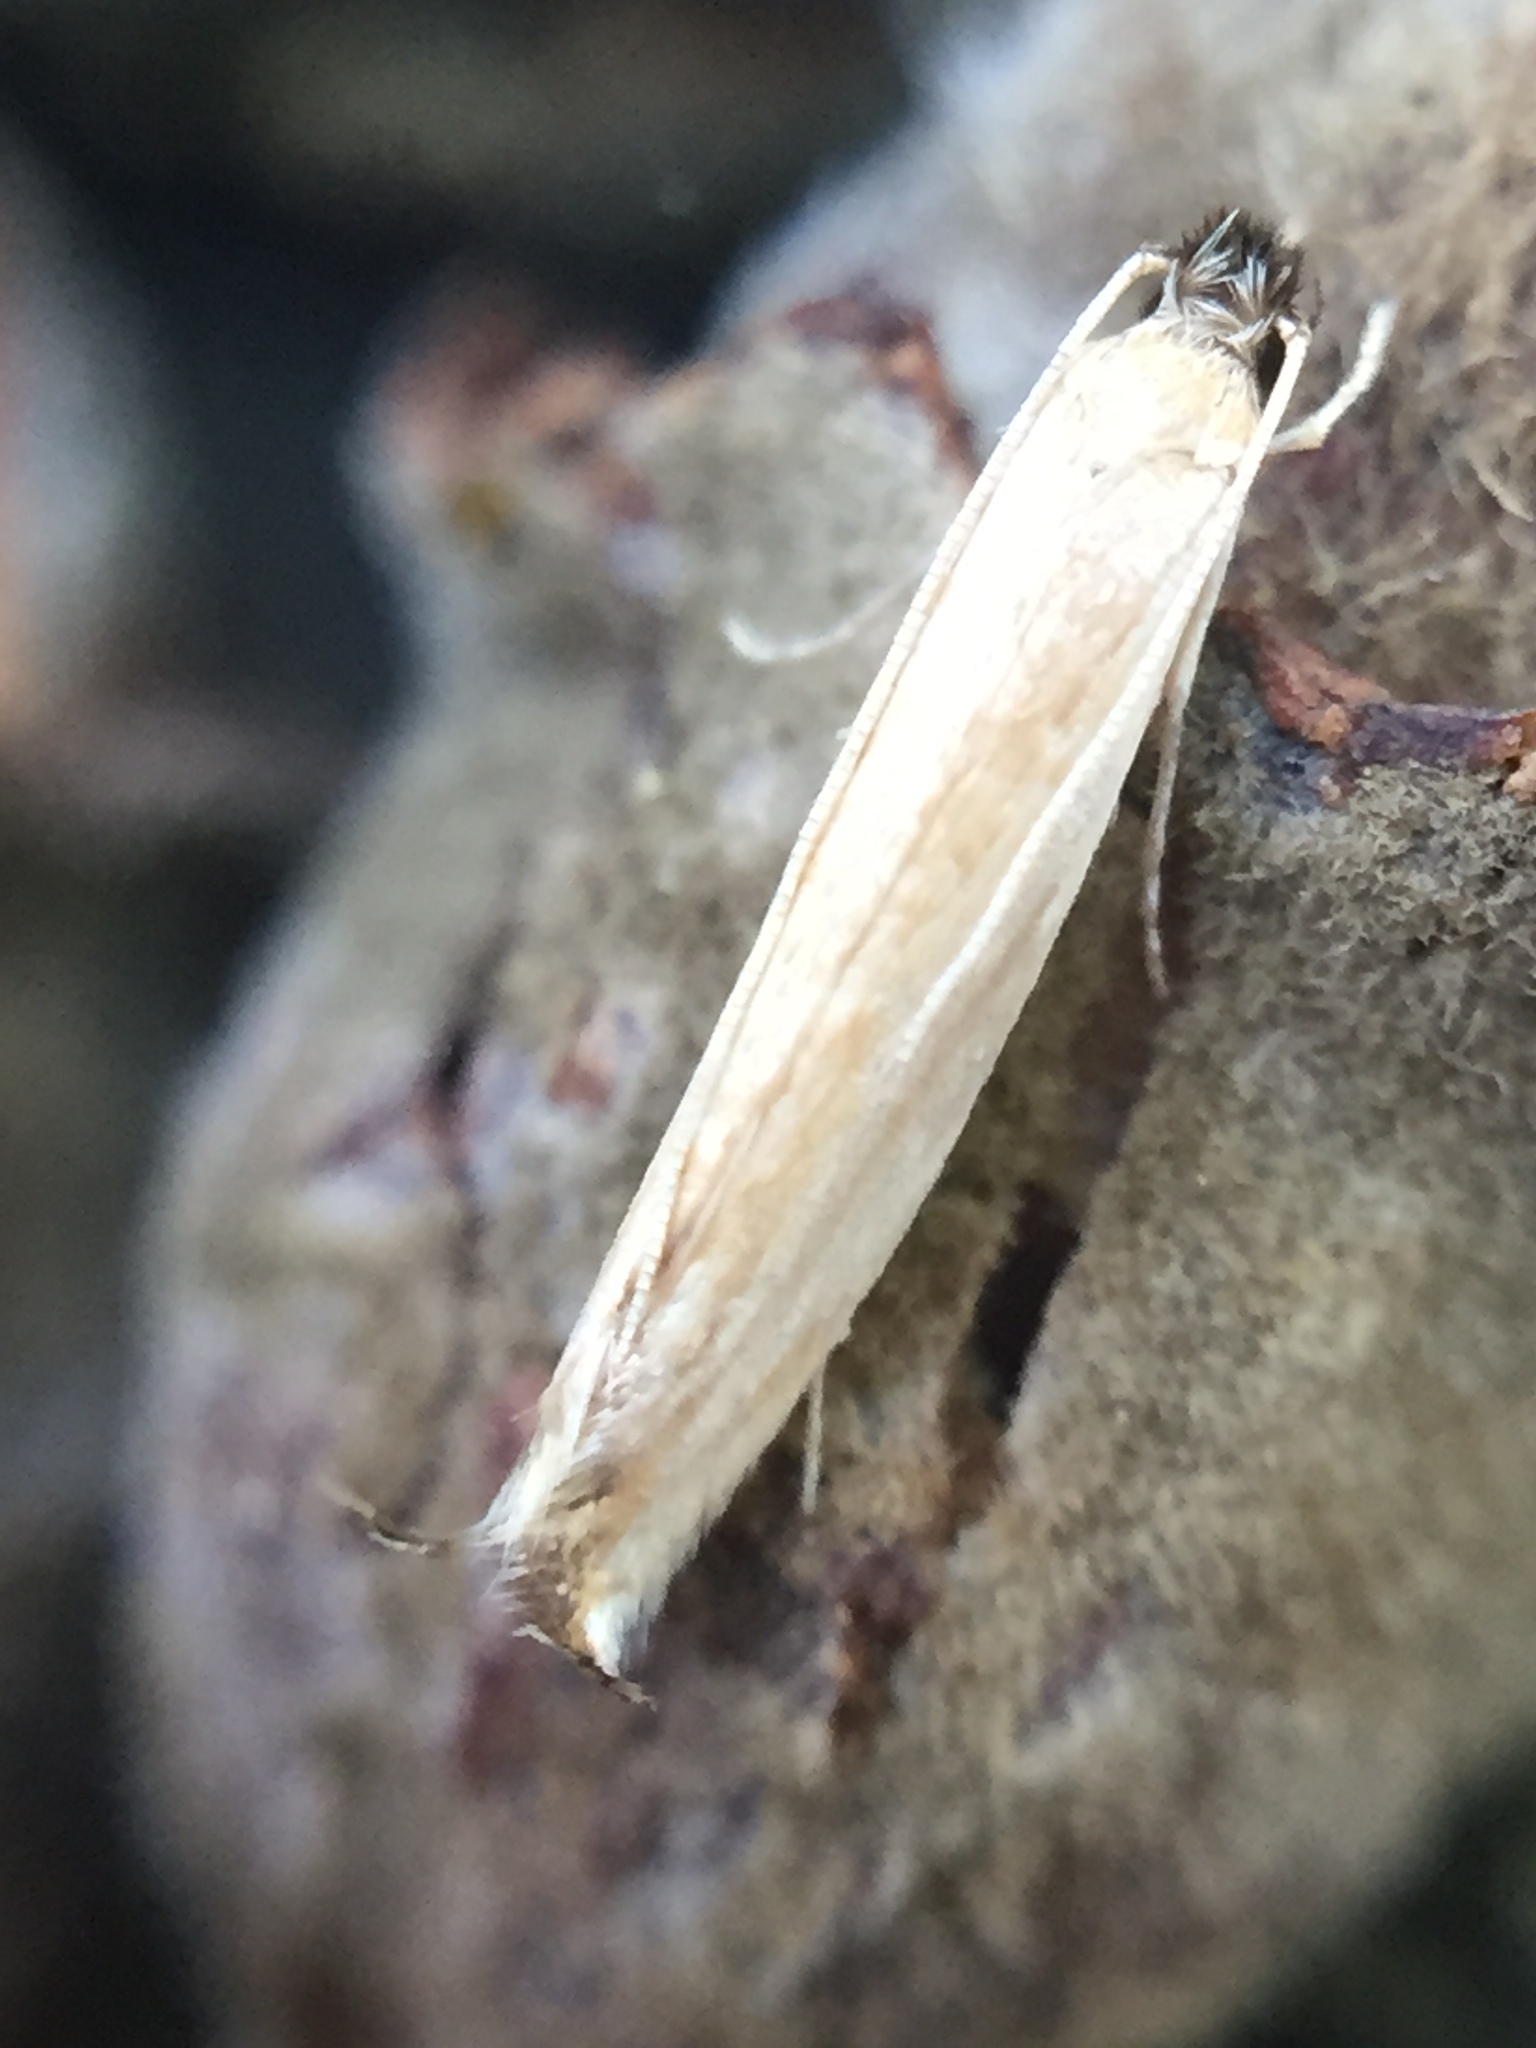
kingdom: Animalia
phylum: Arthropoda
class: Insecta
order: Lepidoptera
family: Tineidae
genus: Erechthias
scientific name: Erechthias exospila
